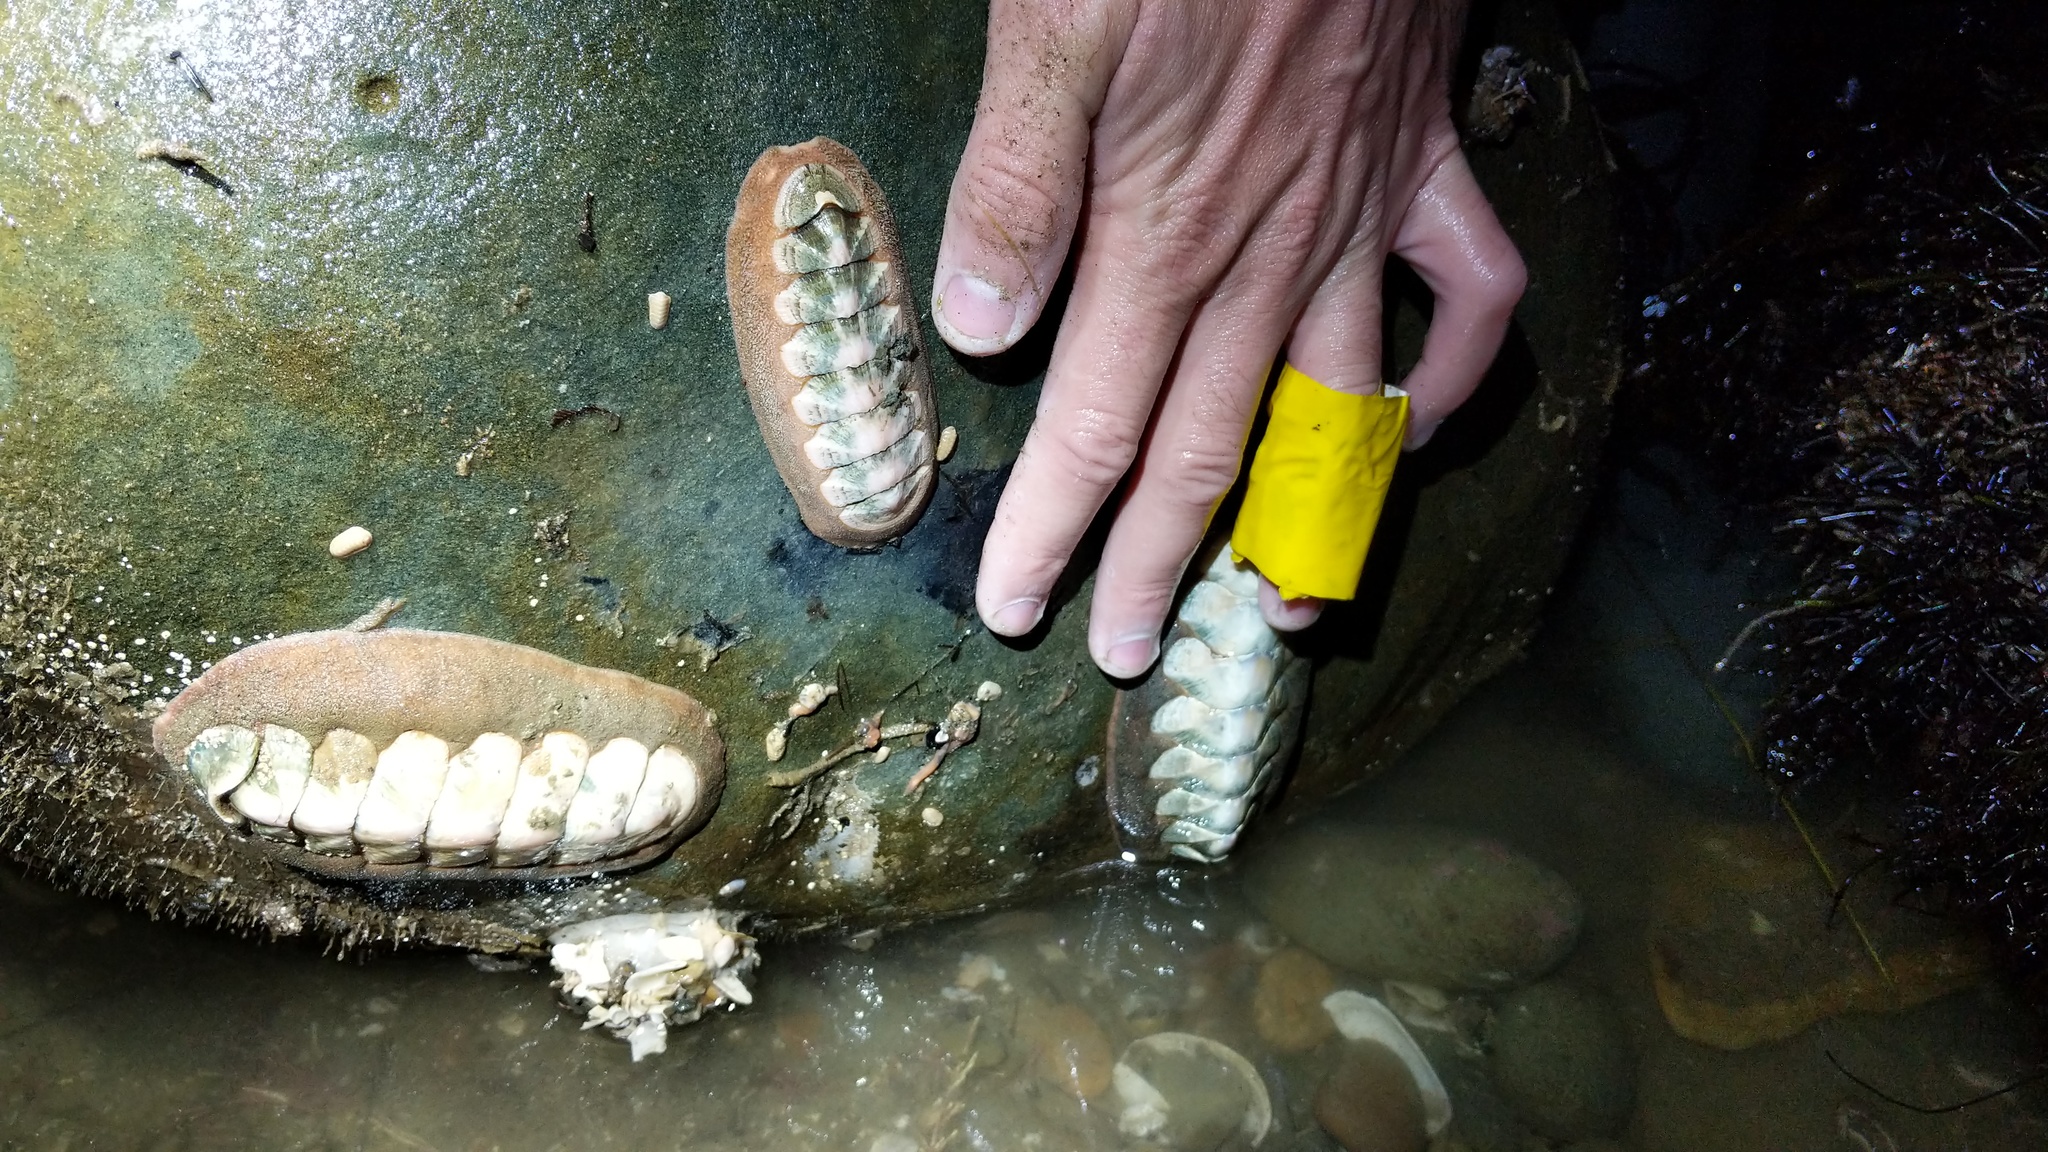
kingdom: Animalia
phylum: Mollusca
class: Polyplacophora
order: Chitonida
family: Ischnochitonidae
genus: Stenoplax
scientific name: Stenoplax conspicua
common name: Conspicuous chiton
